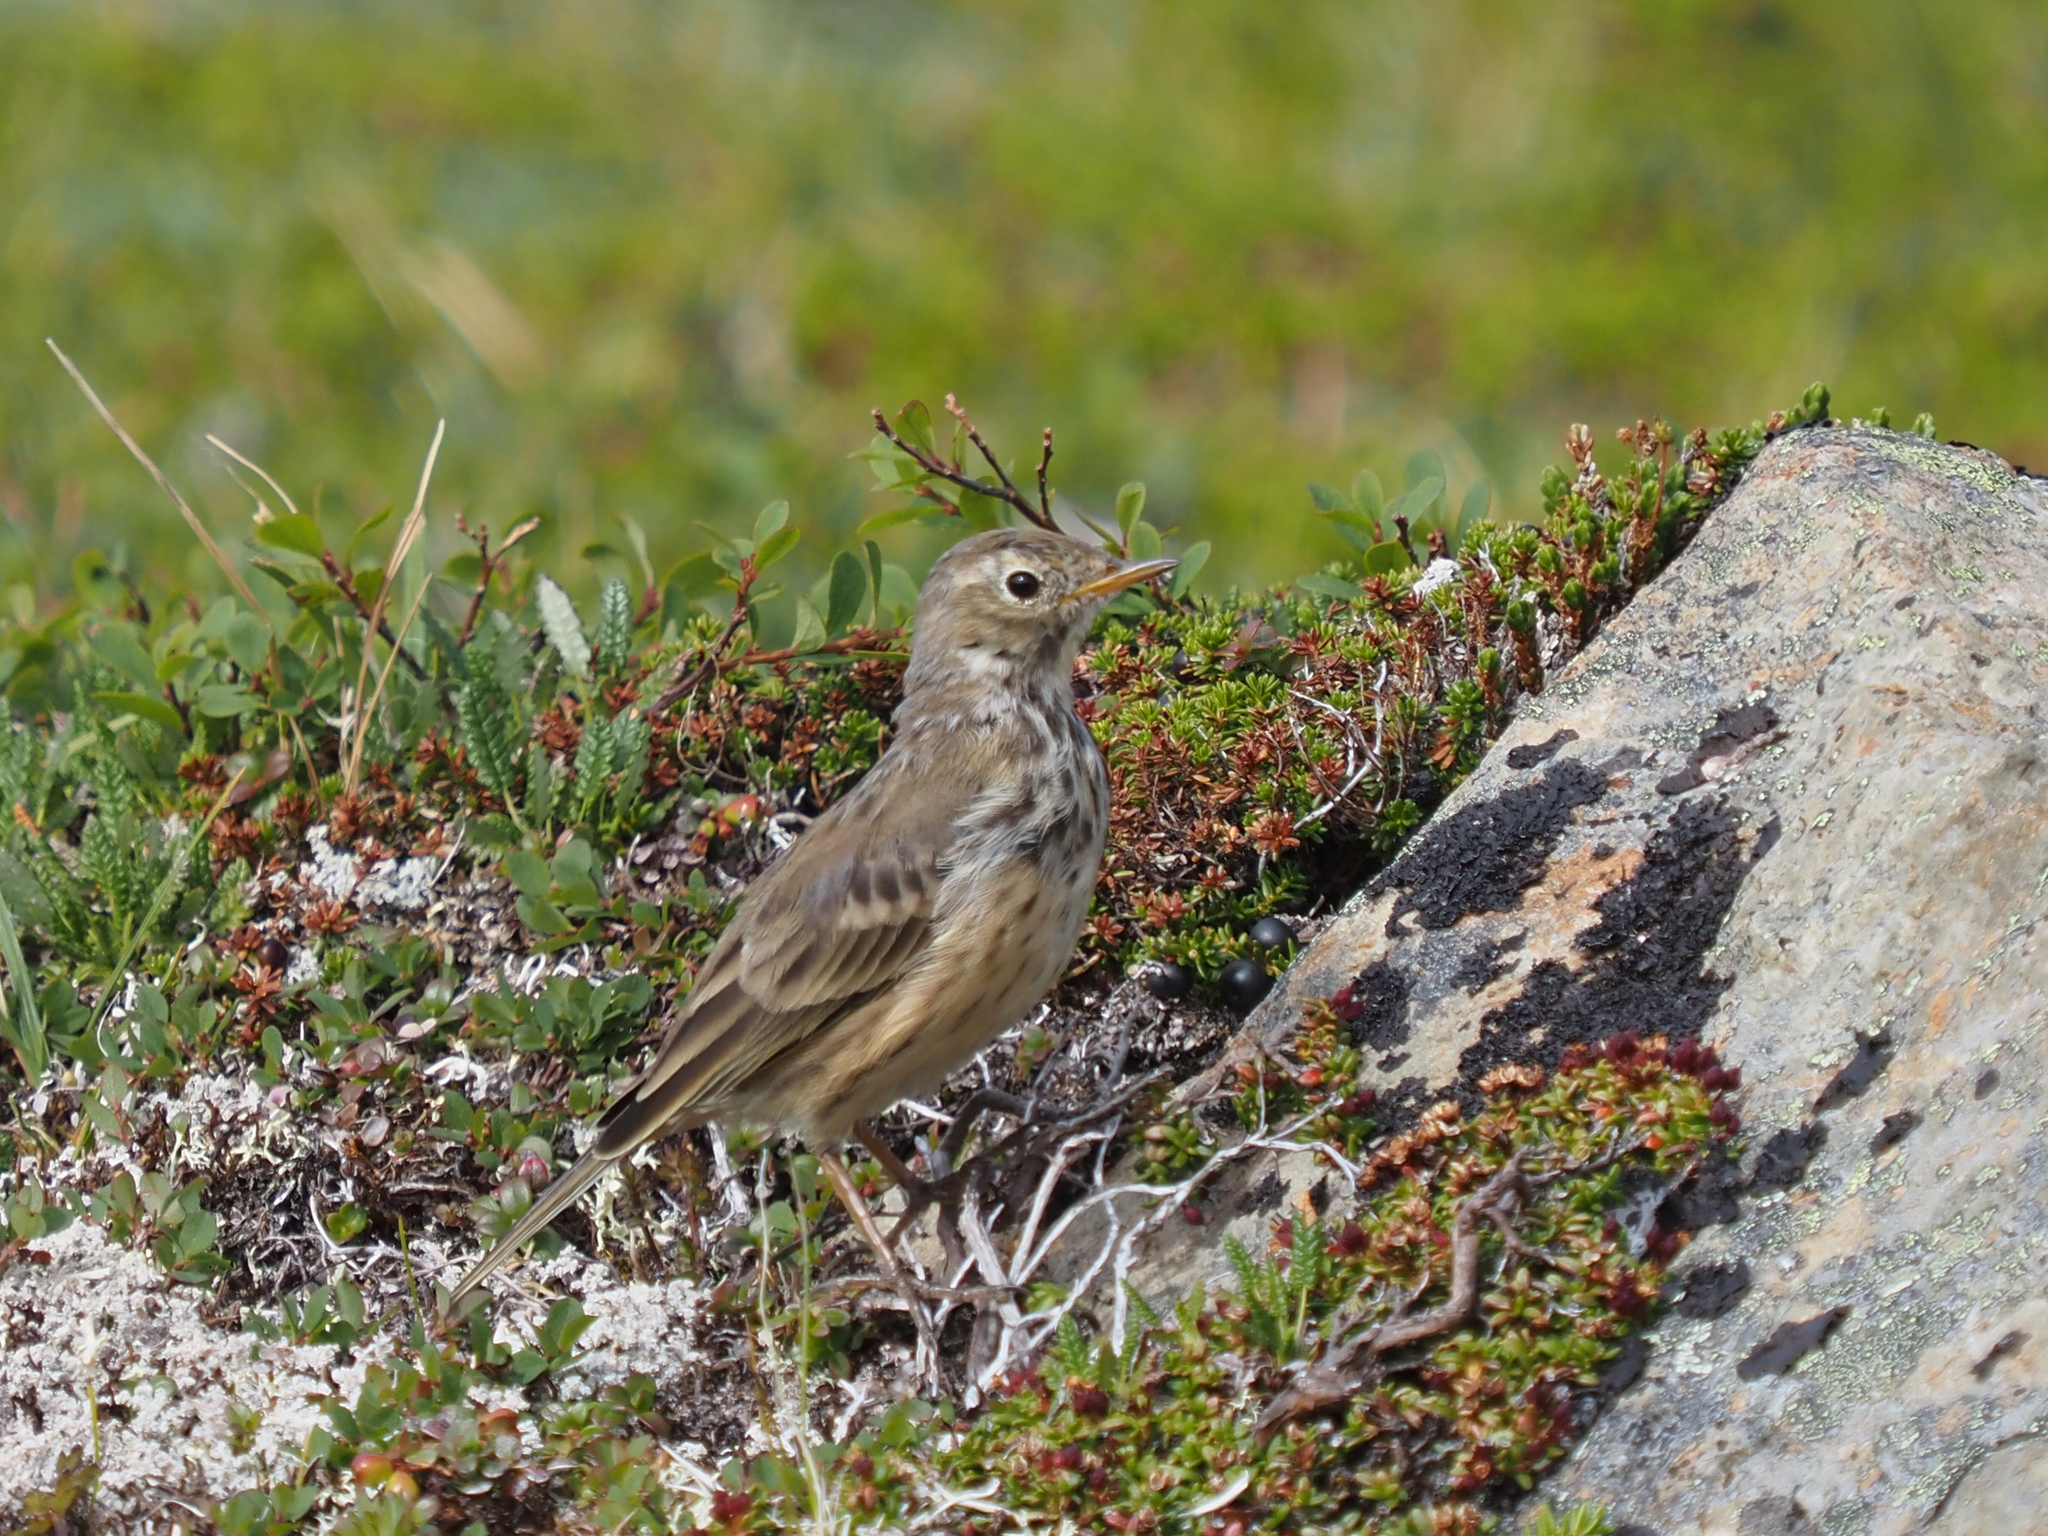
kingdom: Animalia
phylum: Chordata
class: Aves
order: Passeriformes
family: Motacillidae
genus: Anthus
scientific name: Anthus rubescens
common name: Buff-bellied pipit
